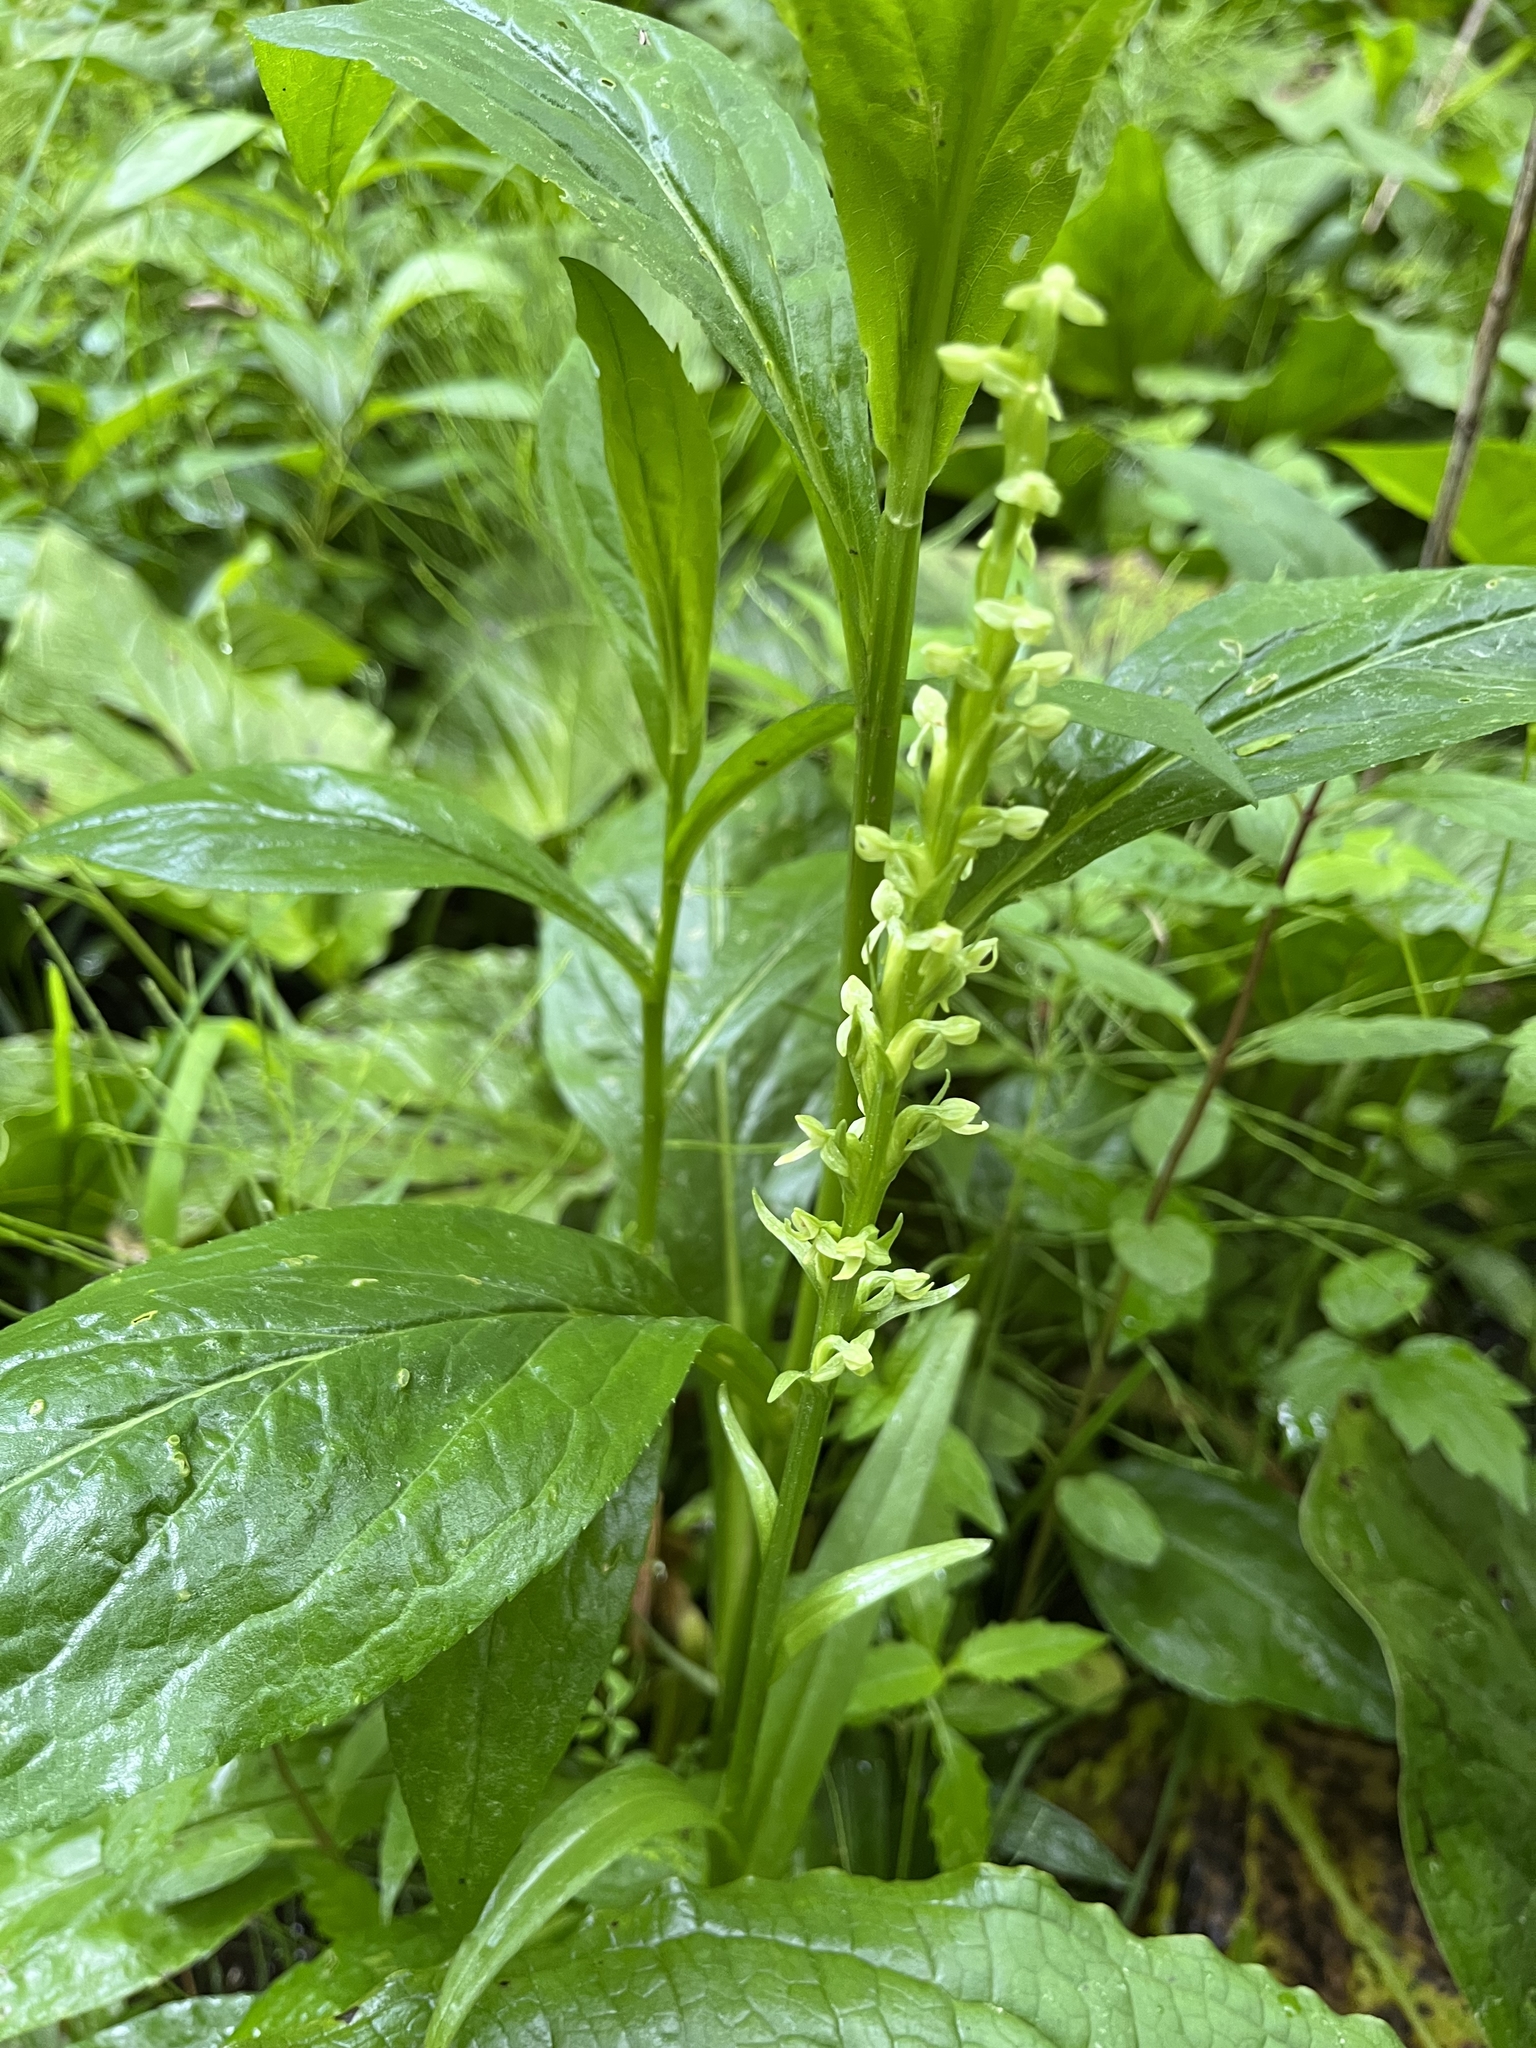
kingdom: Plantae
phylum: Tracheophyta
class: Liliopsida
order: Asparagales
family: Orchidaceae
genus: Platanthera
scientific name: Platanthera huronensis
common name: Fragrant green orchid
